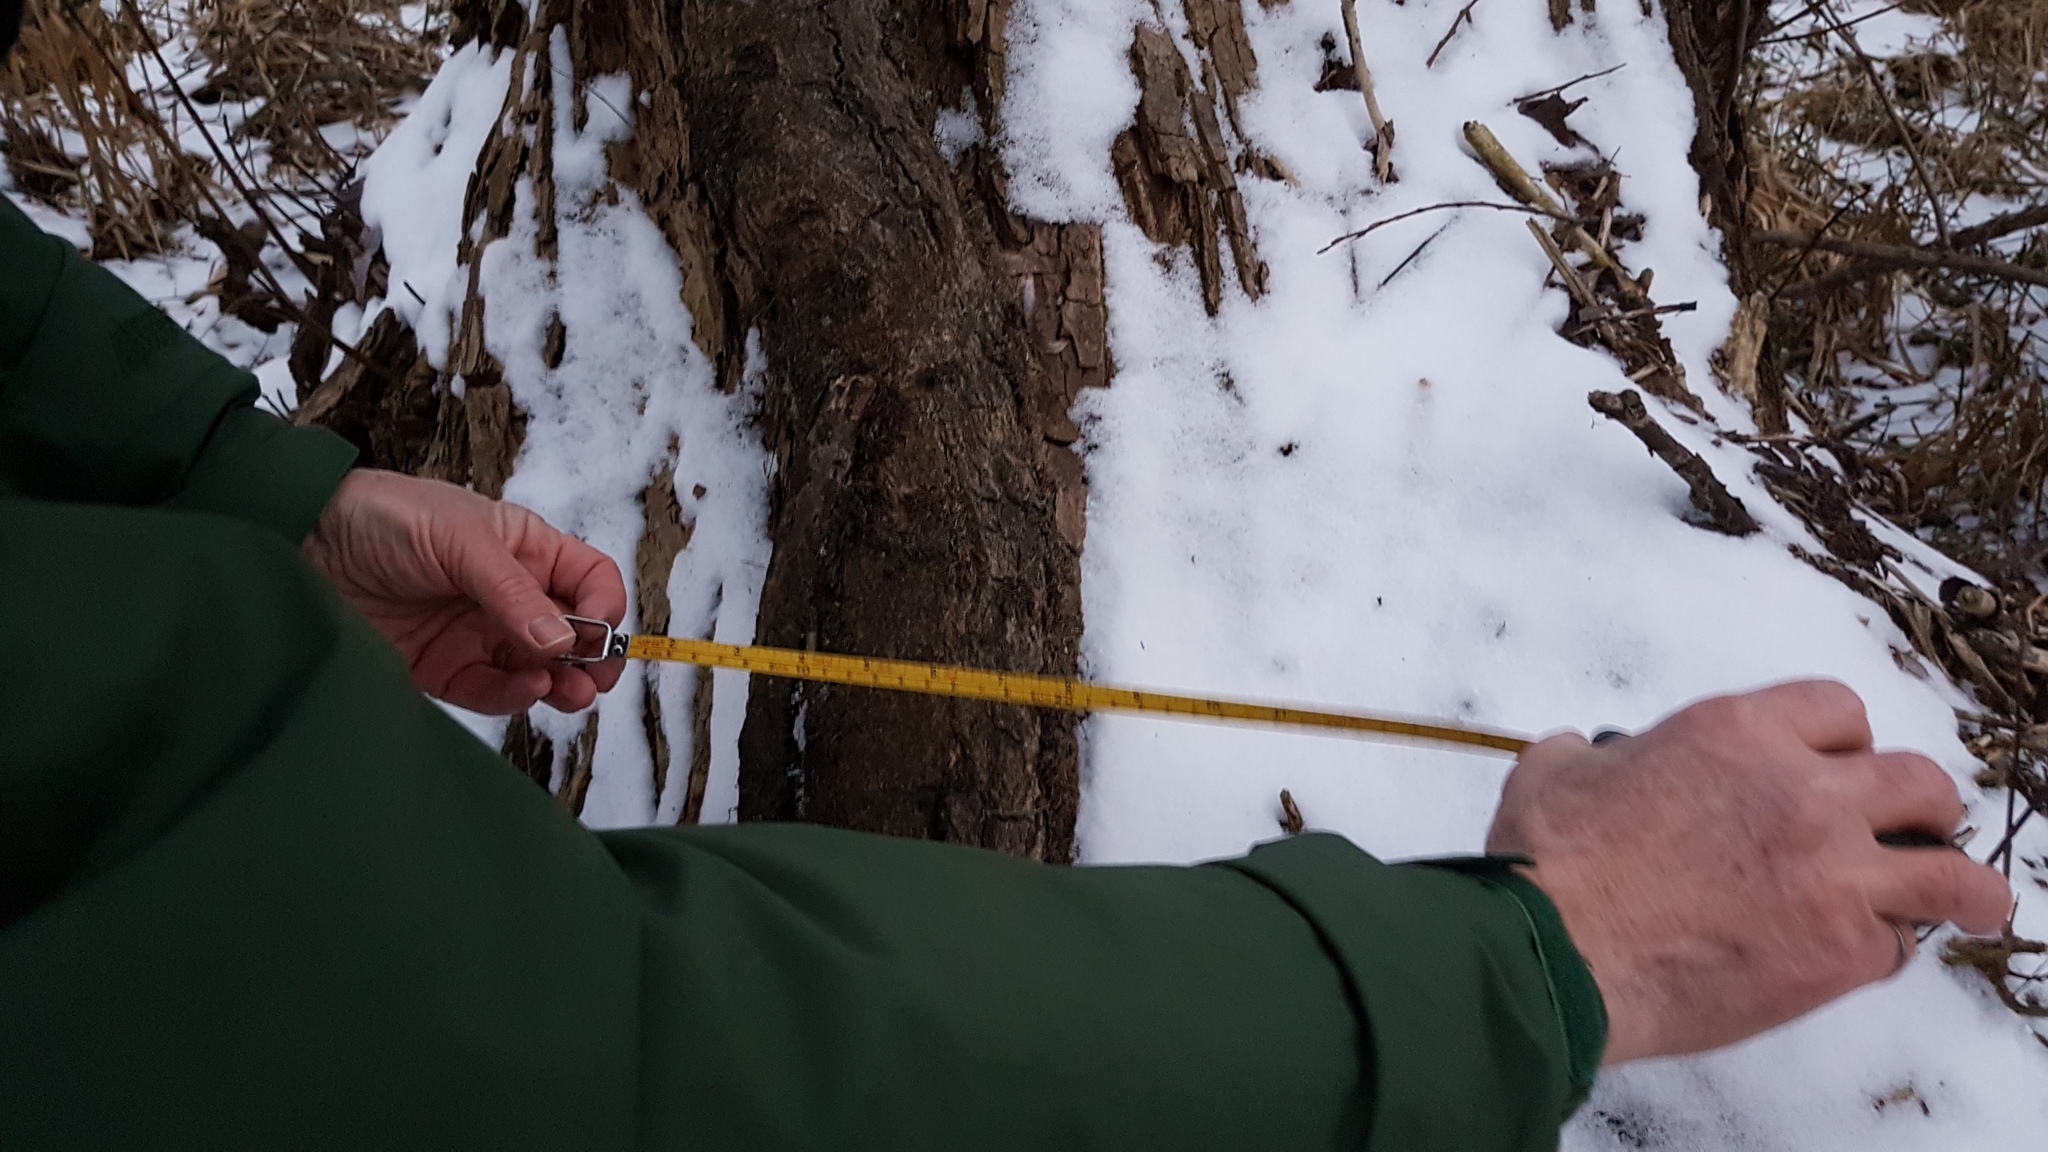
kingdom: Plantae
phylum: Tracheophyta
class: Magnoliopsida
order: Sapindales
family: Anacardiaceae
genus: Toxicodendron
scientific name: Toxicodendron radicans
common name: Poison ivy
